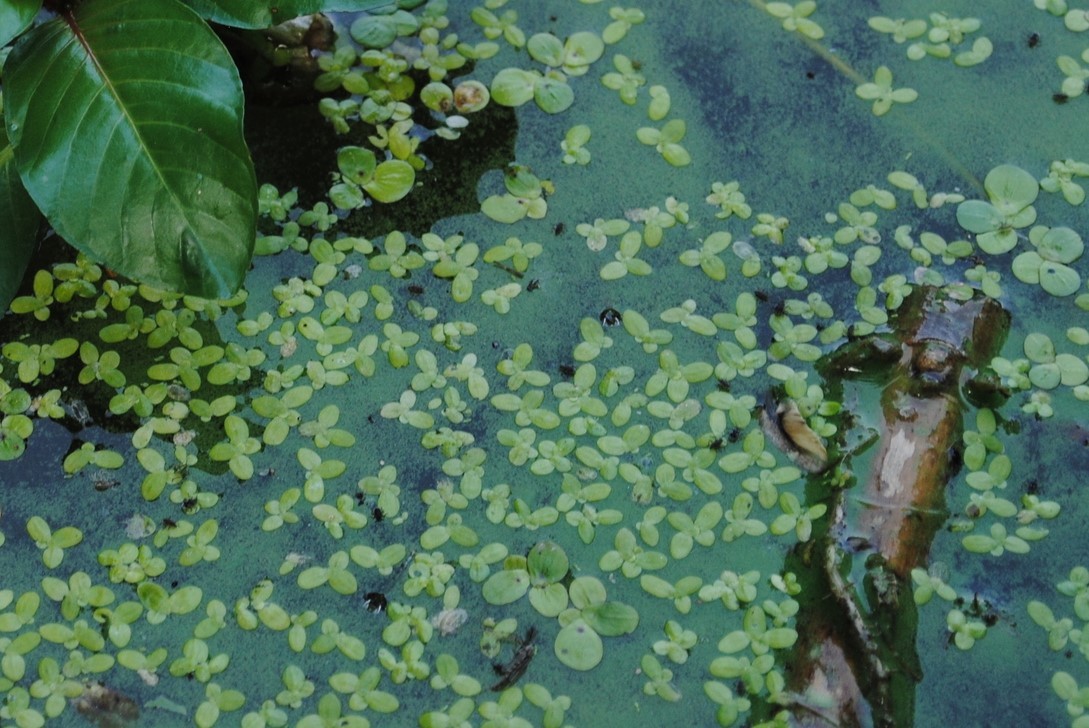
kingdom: Plantae
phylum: Tracheophyta
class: Liliopsida
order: Alismatales
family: Araceae
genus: Spirodela
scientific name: Spirodela polyrhiza
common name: Great duckweed
